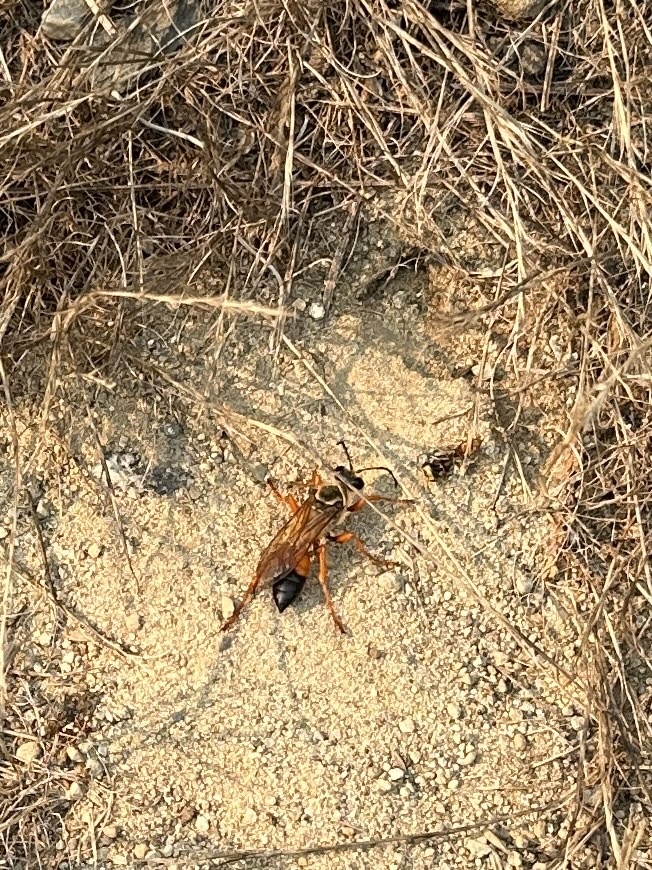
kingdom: Animalia
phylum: Arthropoda
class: Insecta
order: Hymenoptera
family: Sphecidae
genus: Sphex
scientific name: Sphex ichneumoneus
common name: Great golden digger wasp
